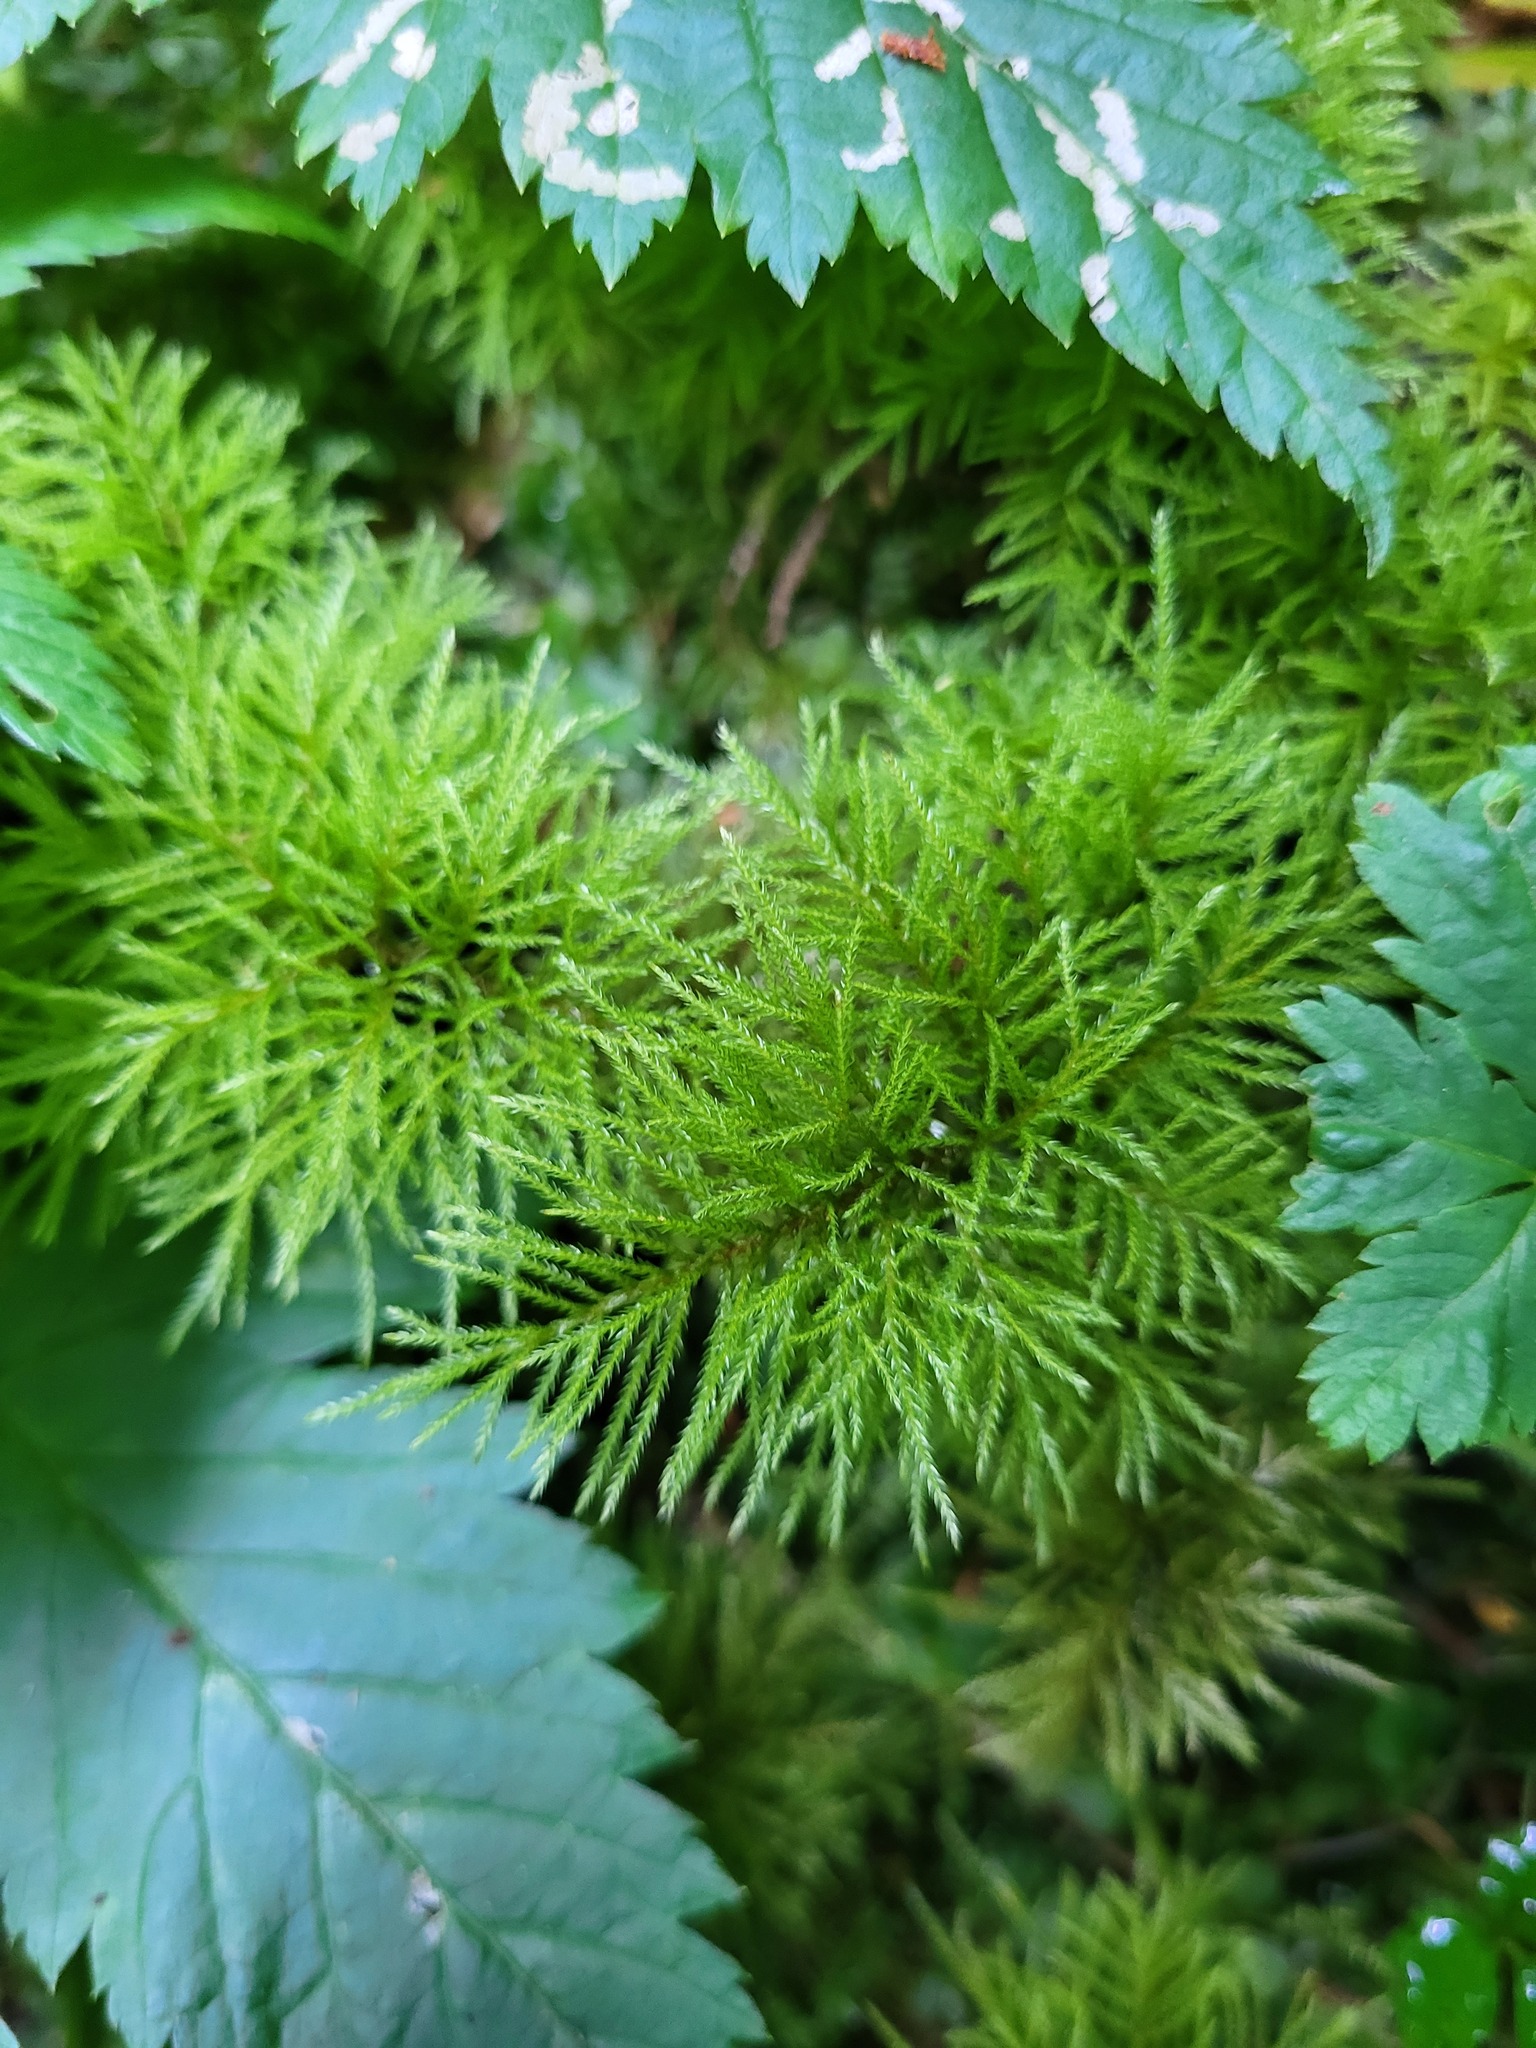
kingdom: Plantae
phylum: Bryophyta
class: Bryopsida
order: Hypnales
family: Climaciaceae
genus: Pleuroziopsis
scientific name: Pleuroziopsis ruthenica
